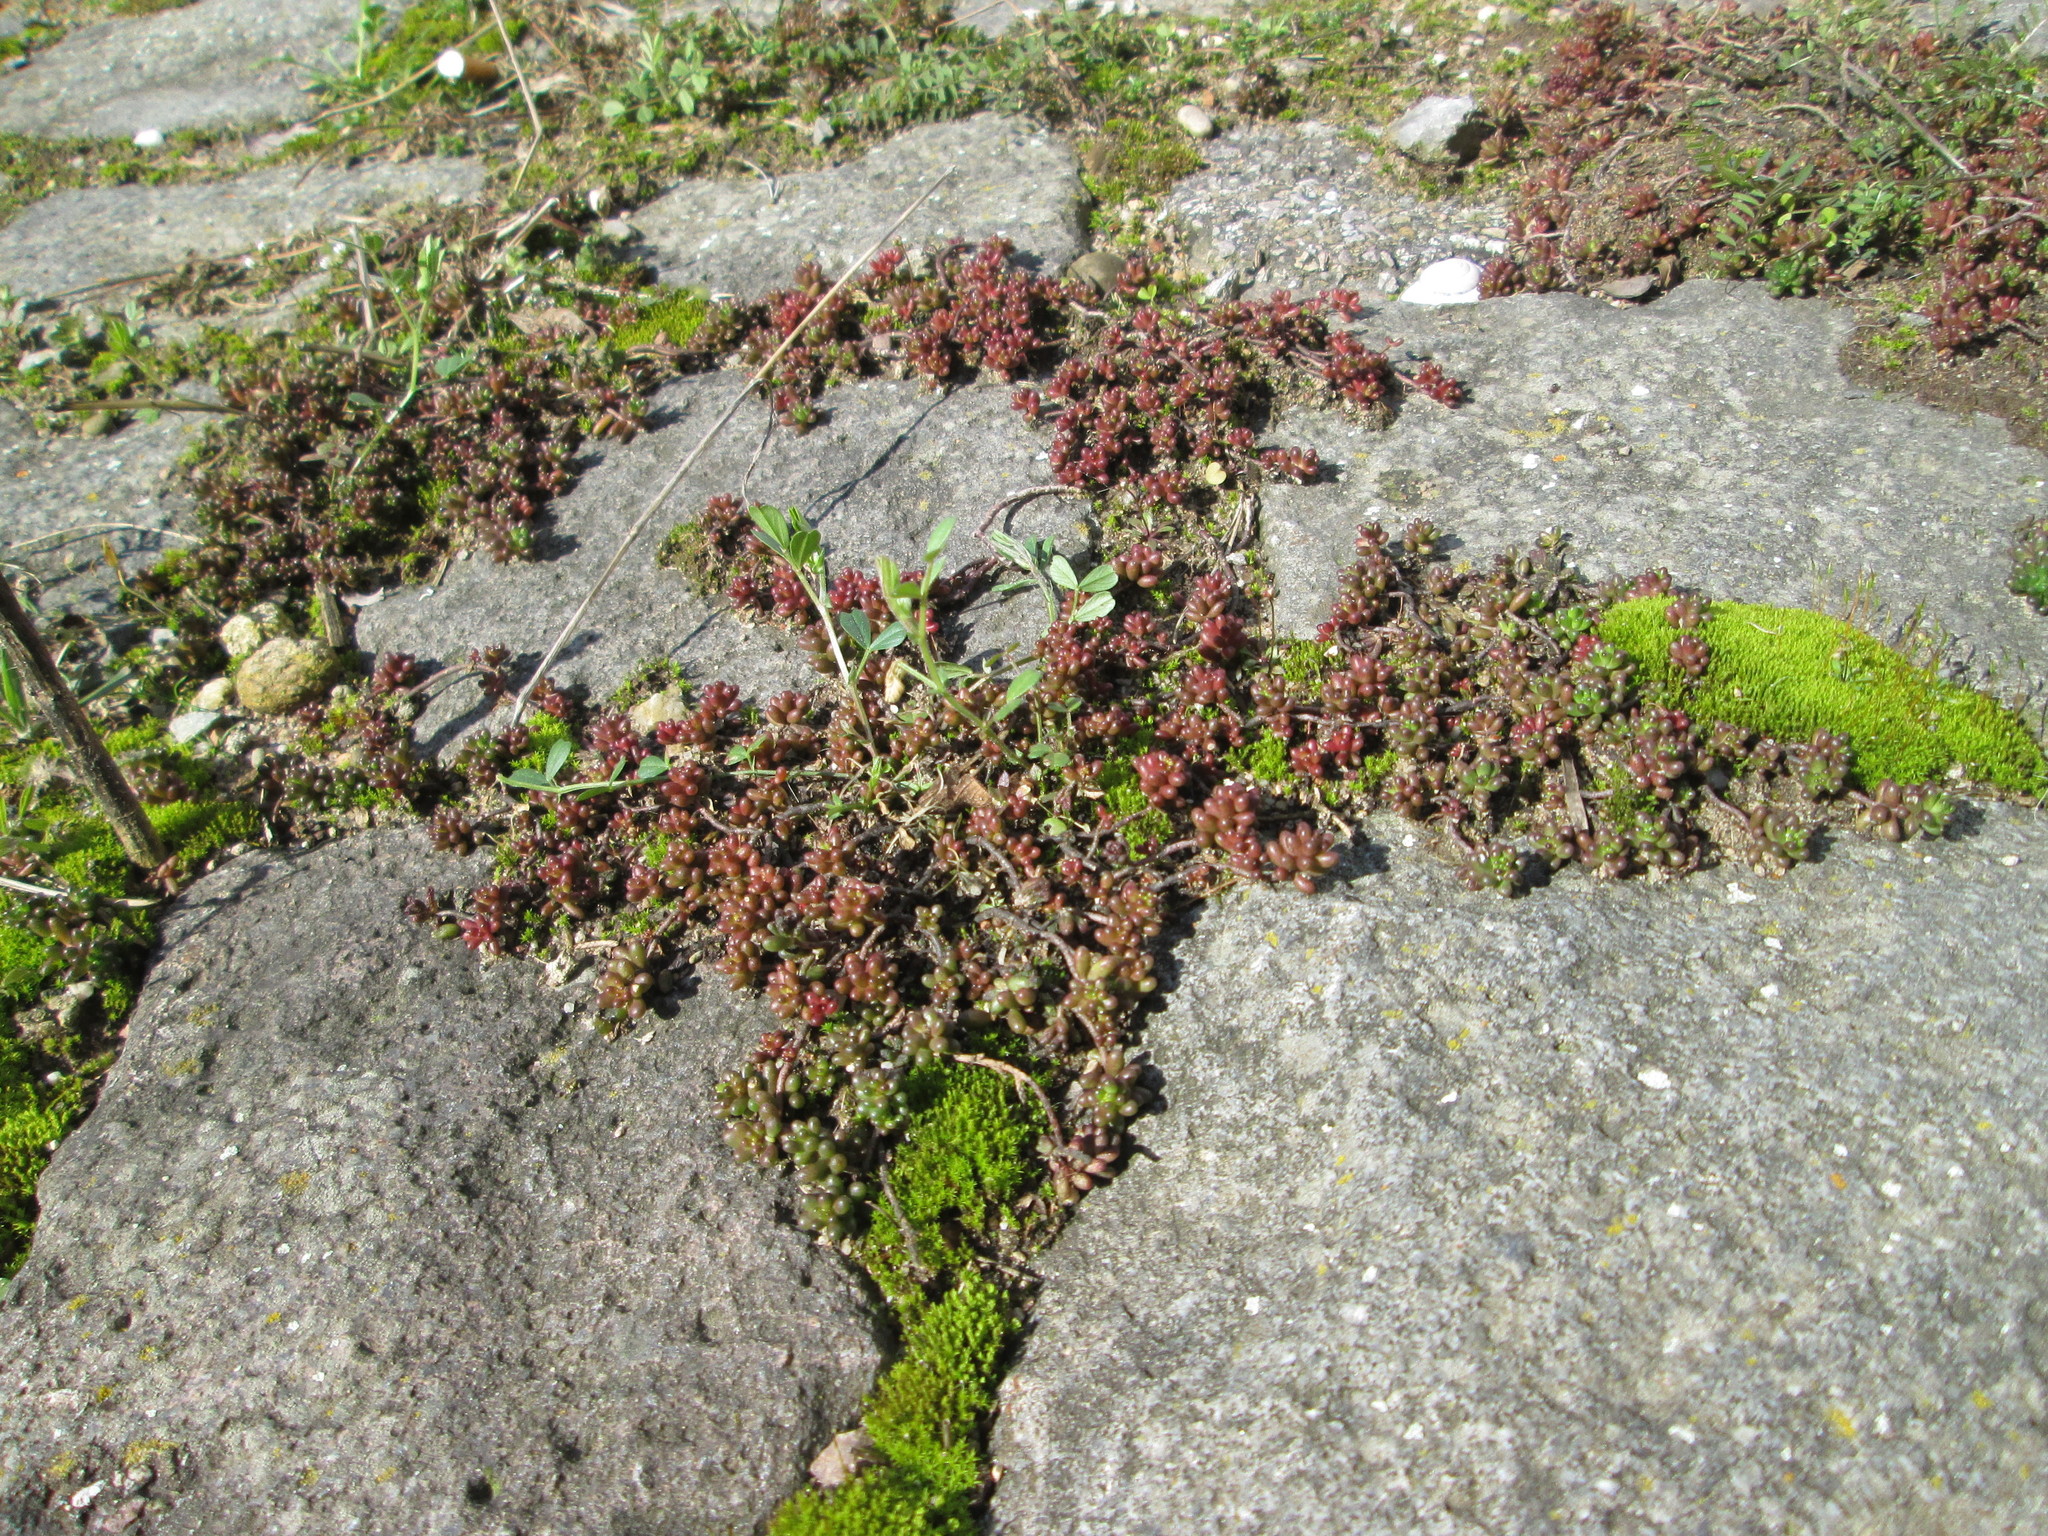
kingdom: Plantae
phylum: Tracheophyta
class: Magnoliopsida
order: Saxifragales
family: Crassulaceae
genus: Sedum
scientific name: Sedum album
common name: White stonecrop
